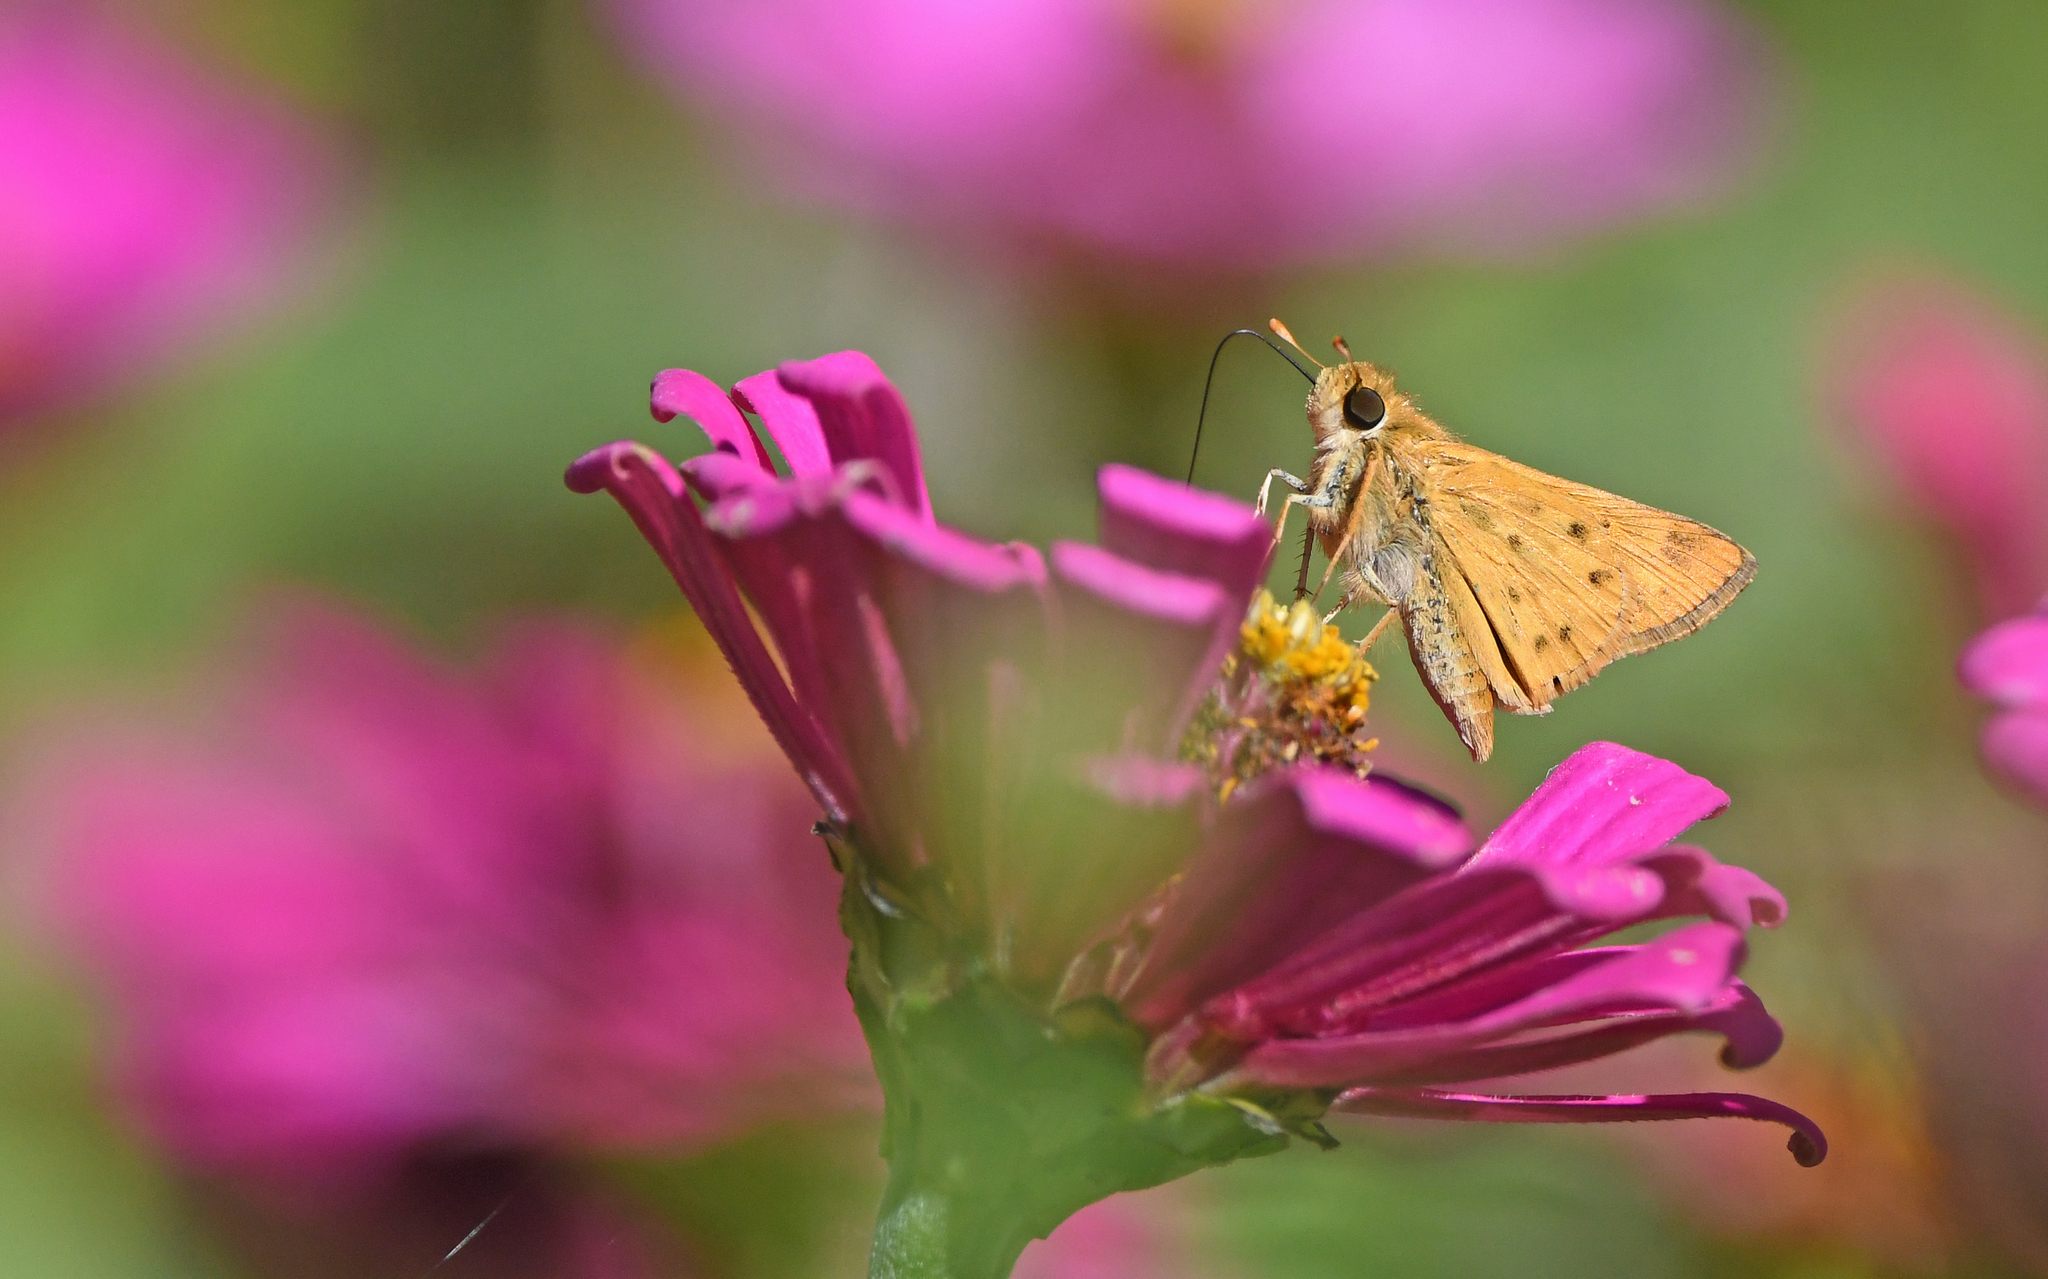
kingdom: Animalia
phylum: Arthropoda
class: Insecta
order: Lepidoptera
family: Hesperiidae
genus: Hylephila
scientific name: Hylephila phyleus
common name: Fiery skipper
